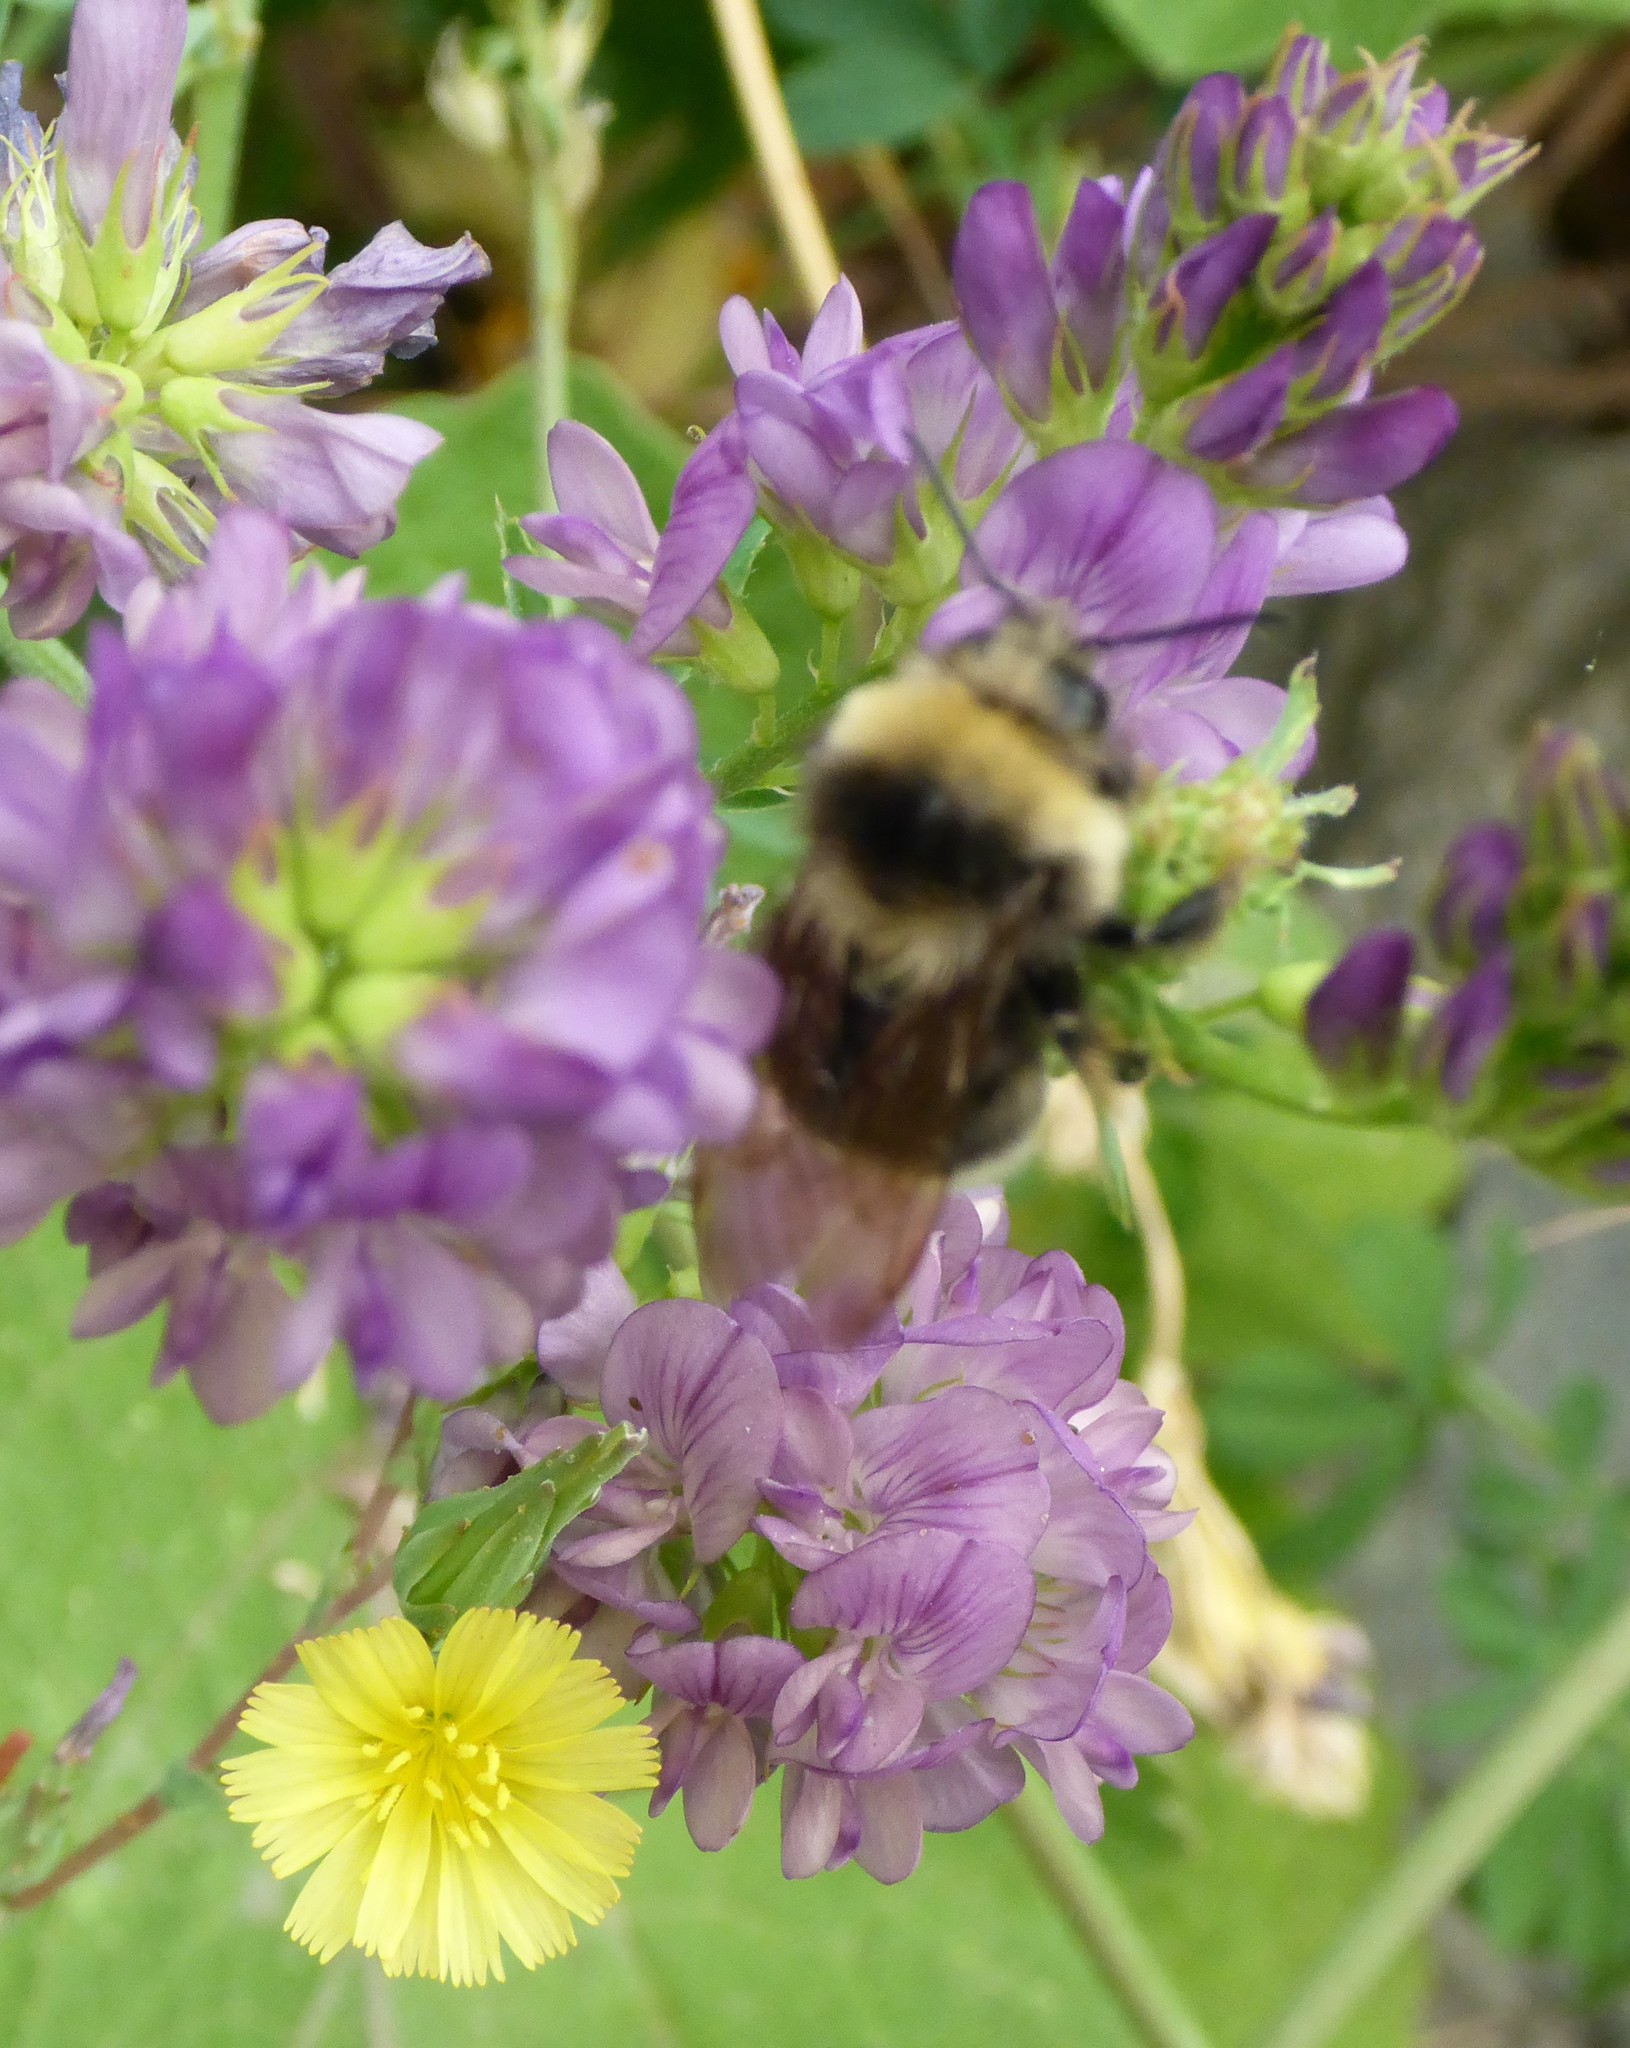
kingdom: Animalia
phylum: Arthropoda
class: Insecta
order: Hymenoptera
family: Apidae
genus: Bombus
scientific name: Bombus occidentalis
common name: Western bumble bee
